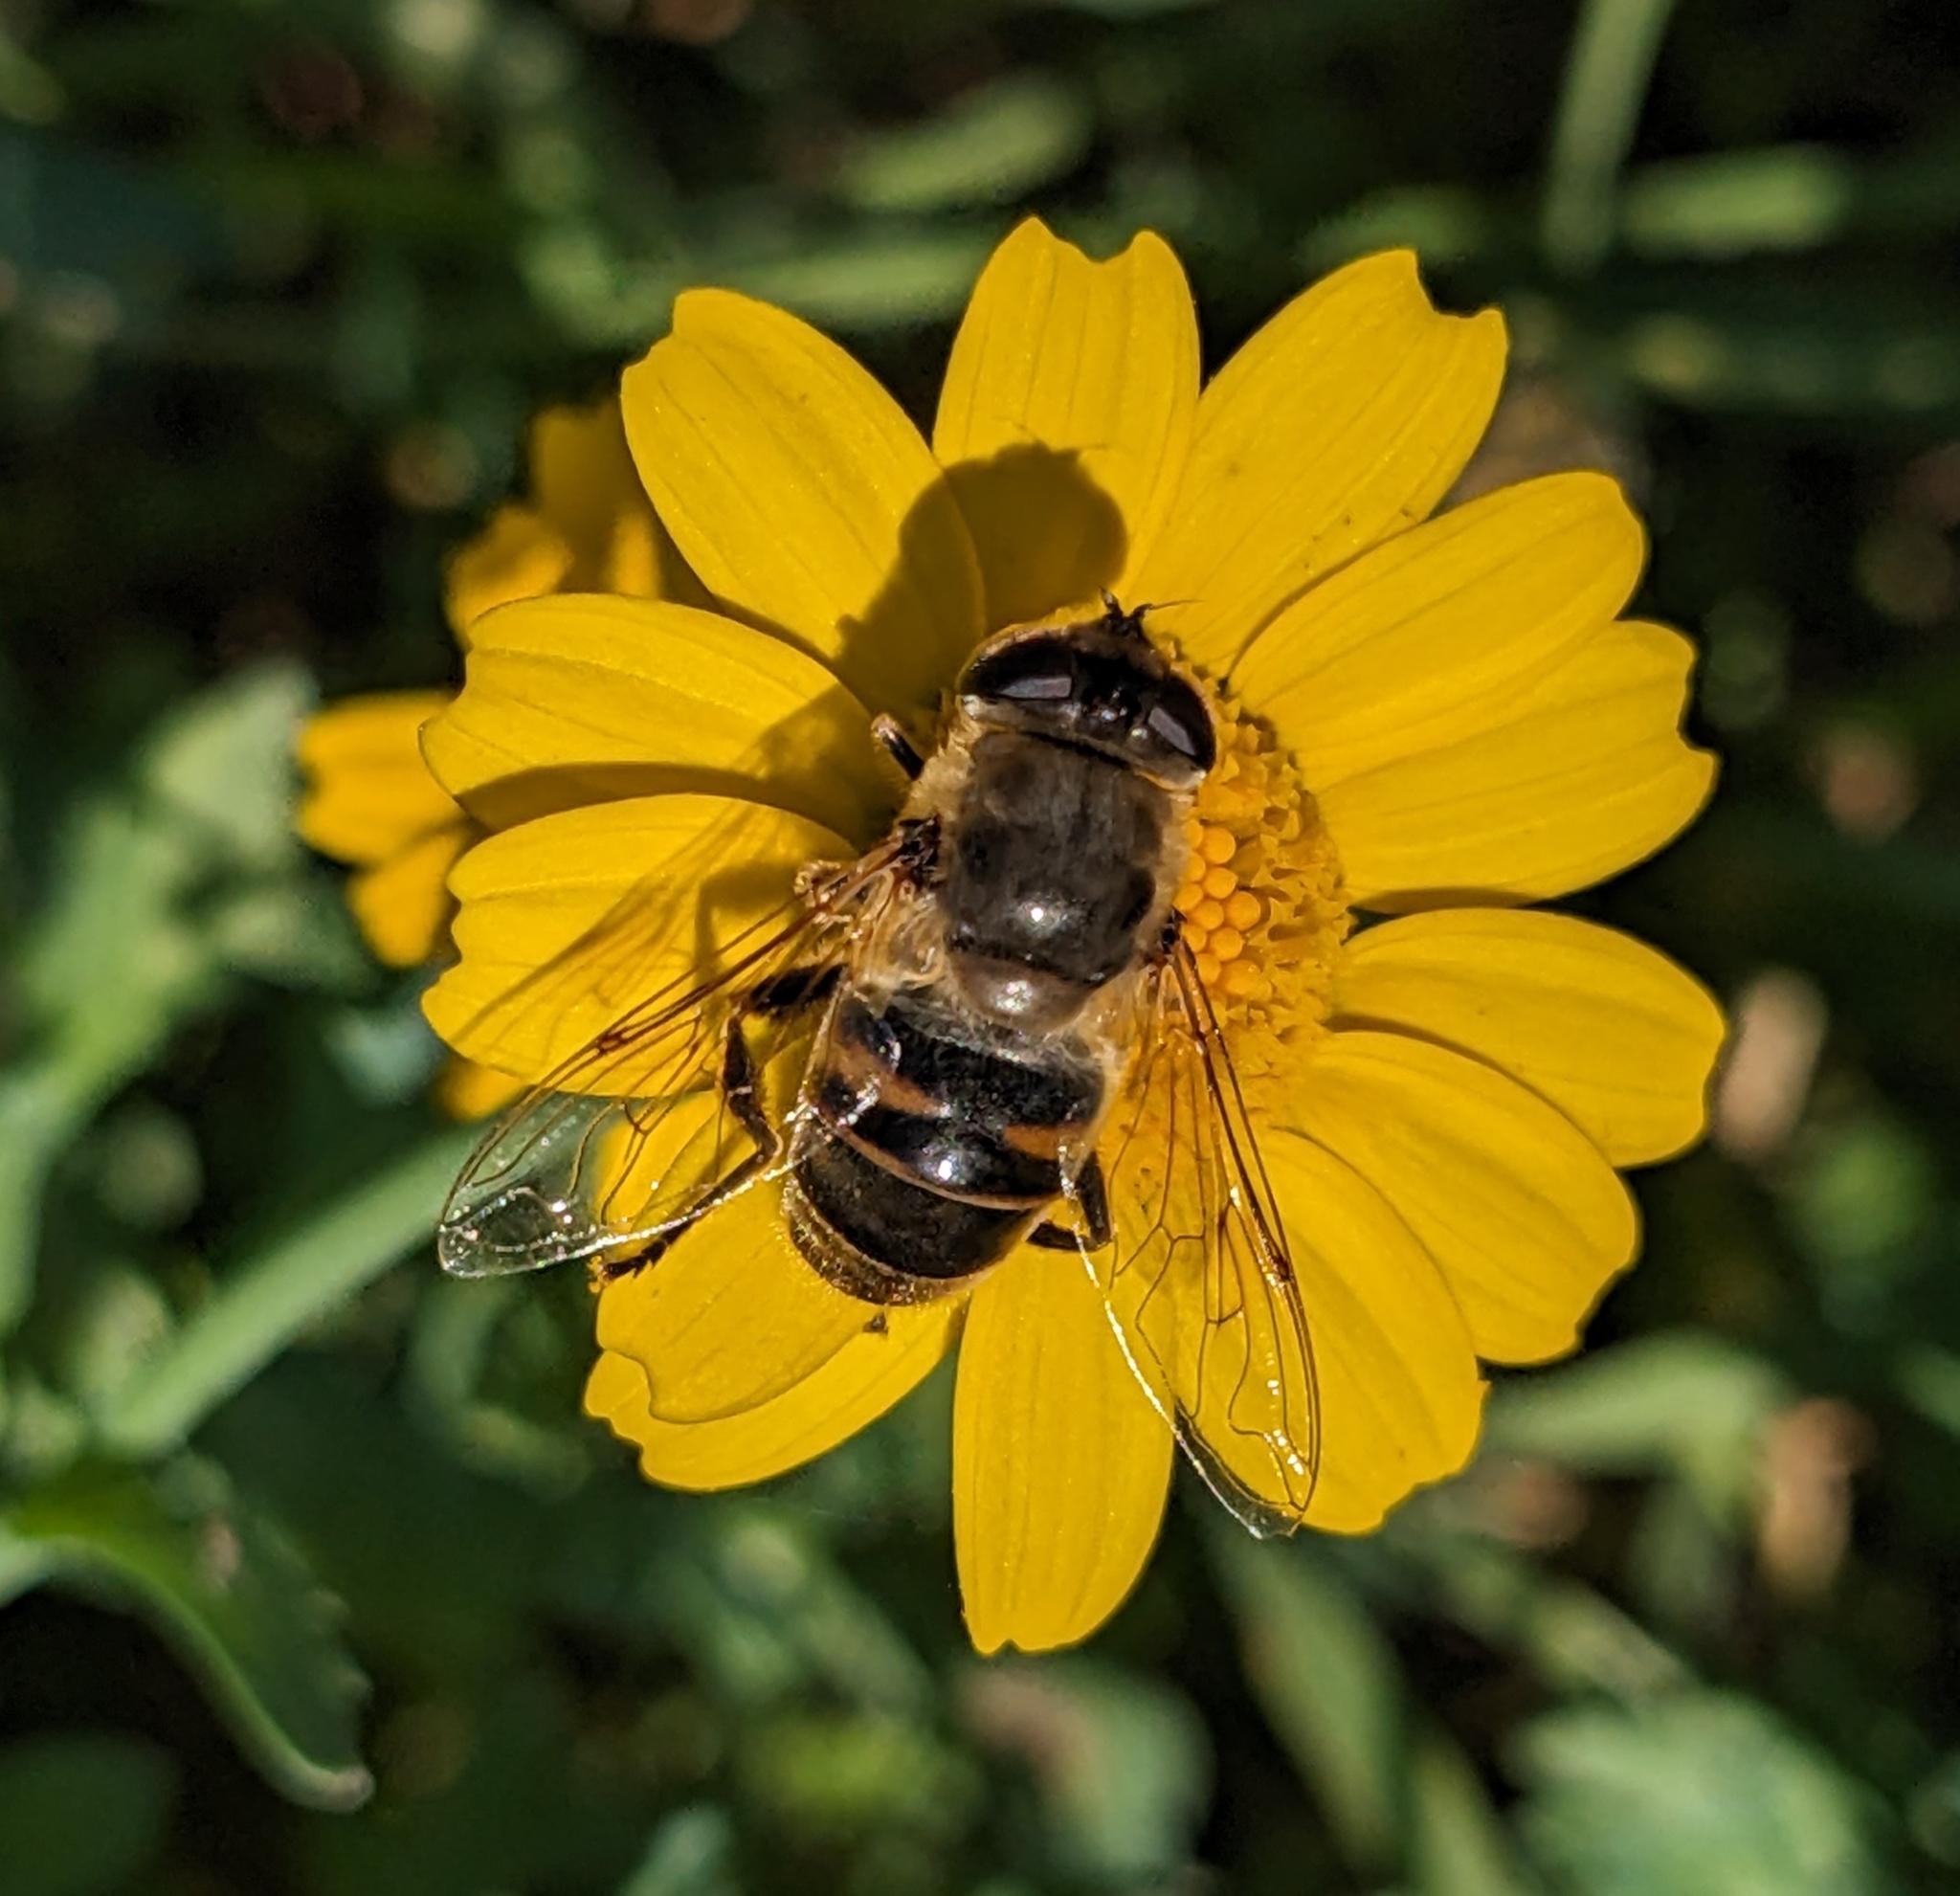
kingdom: Animalia
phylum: Arthropoda
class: Insecta
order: Diptera
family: Syrphidae
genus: Eristalis
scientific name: Eristalis tenax
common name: Drone fly
